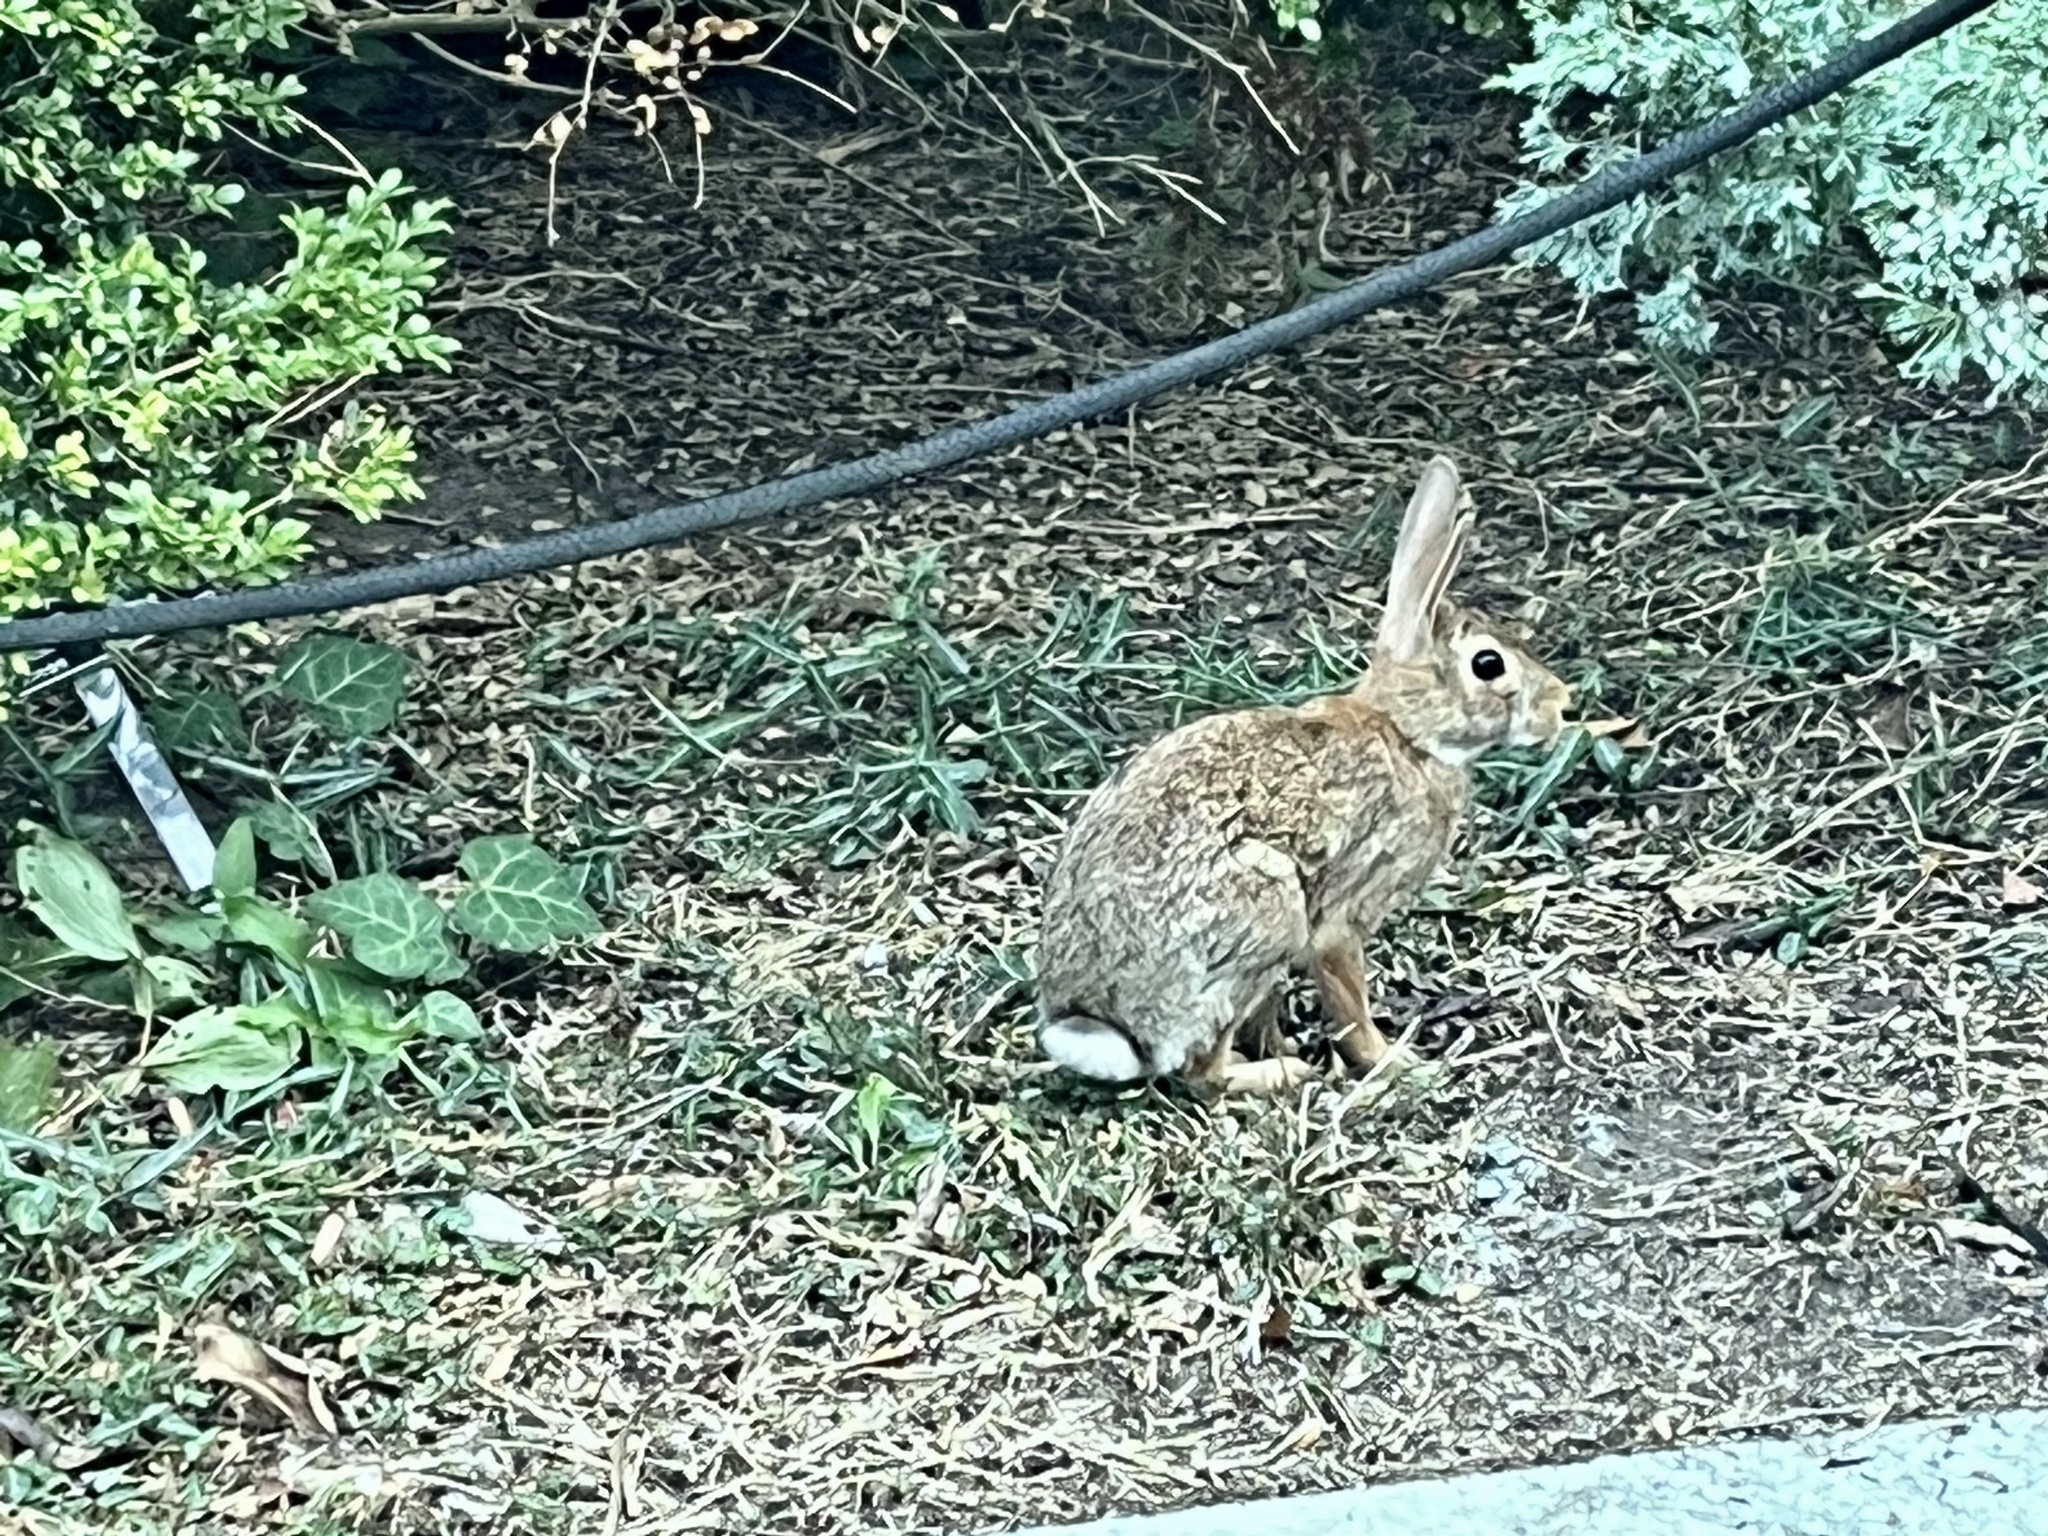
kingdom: Animalia
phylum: Chordata
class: Mammalia
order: Lagomorpha
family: Leporidae
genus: Sylvilagus
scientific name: Sylvilagus floridanus
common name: Eastern cottontail
